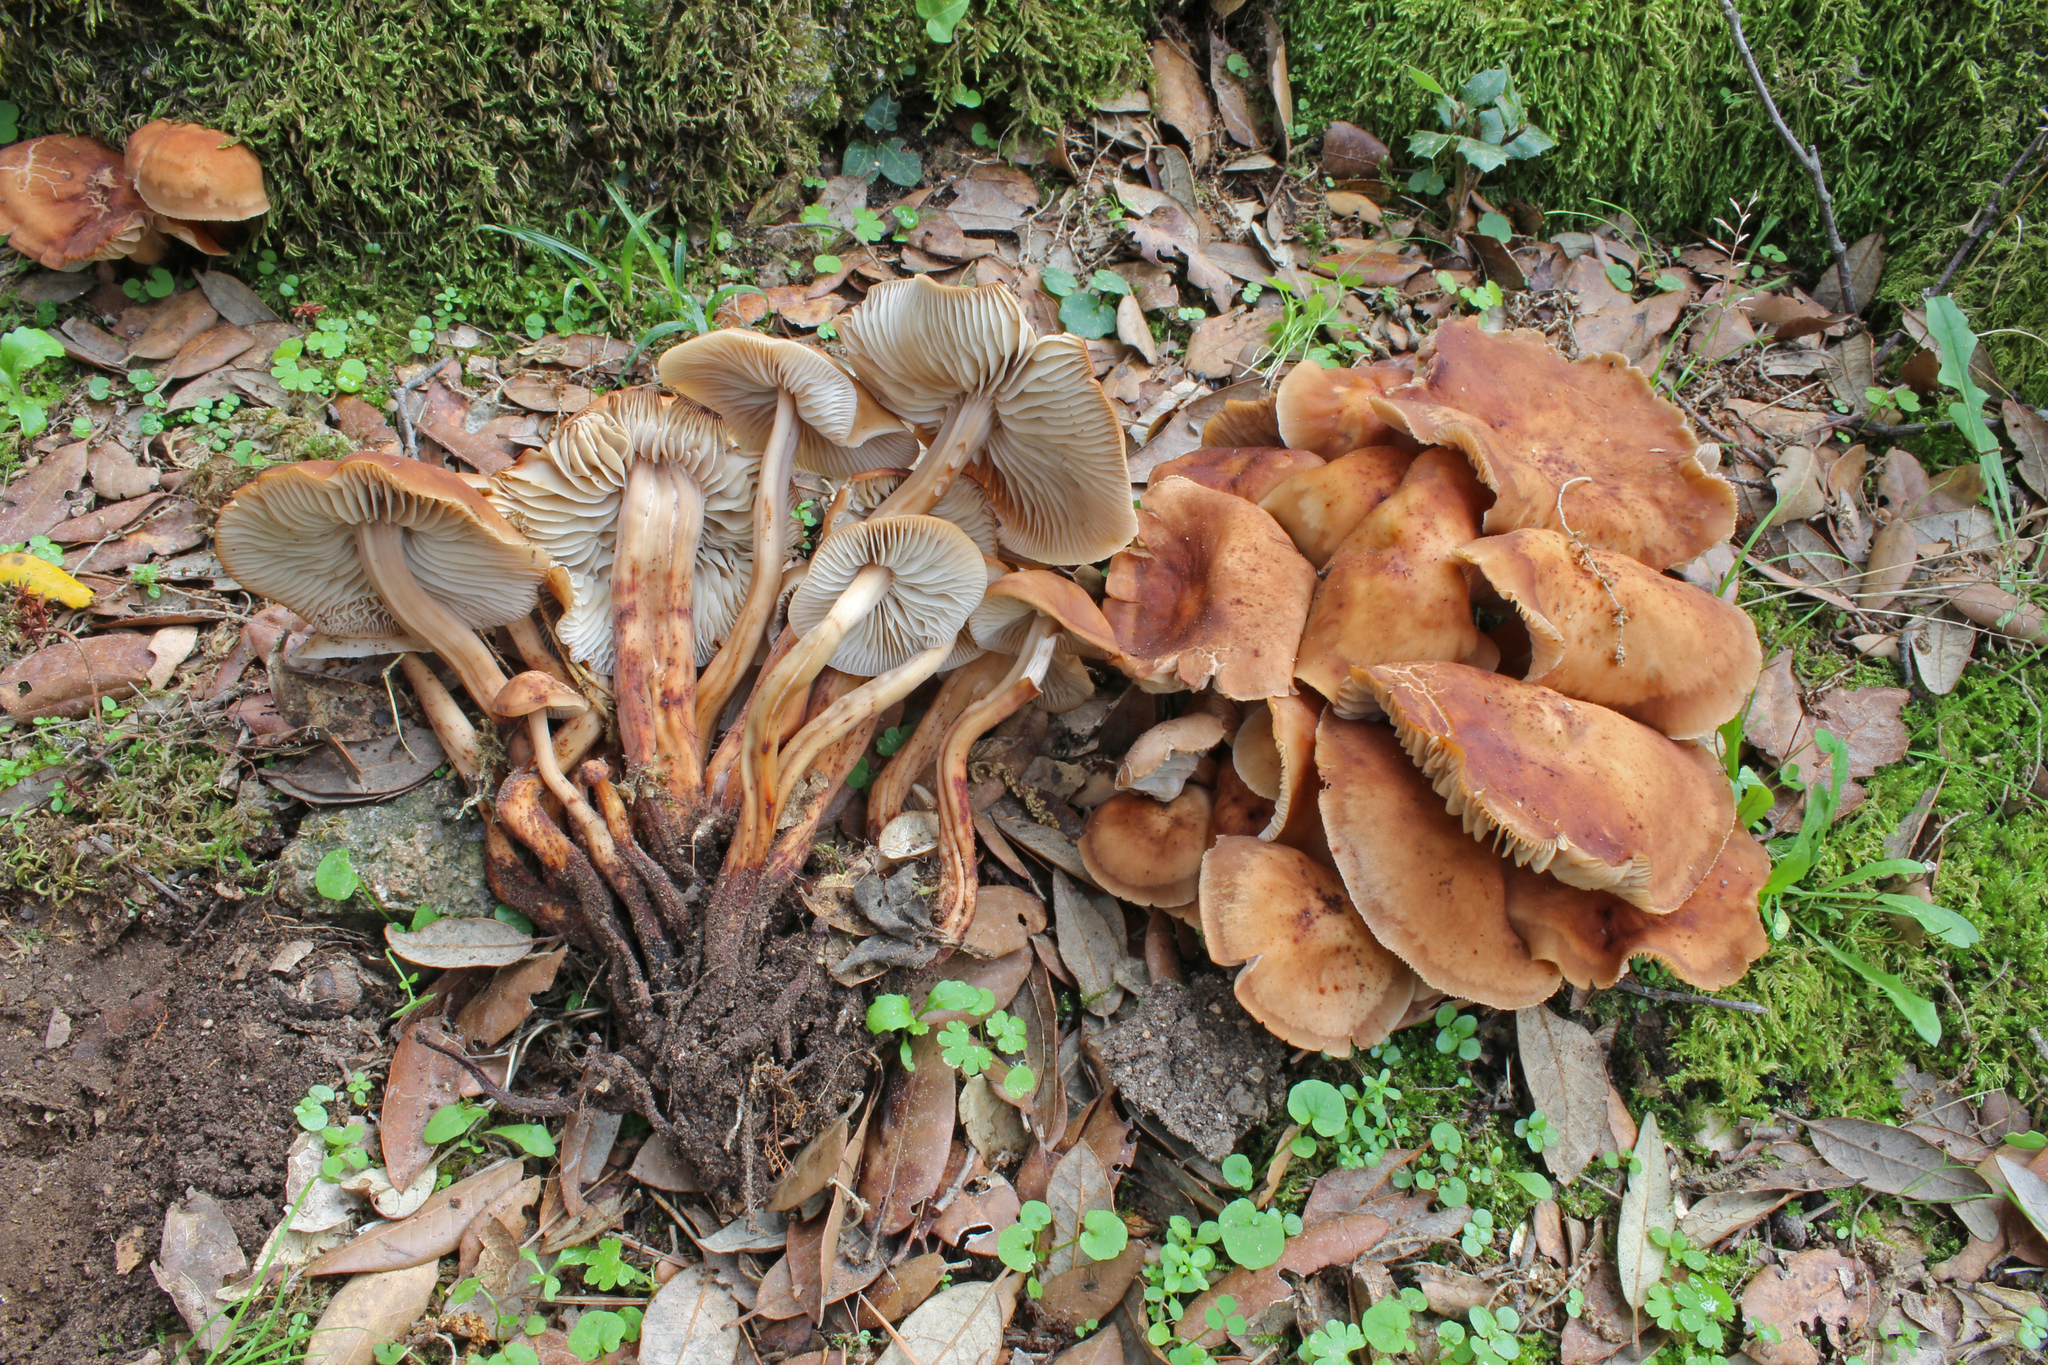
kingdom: Fungi
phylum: Basidiomycota
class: Agaricomycetes
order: Agaricales
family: Omphalotaceae
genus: Gymnopus
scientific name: Gymnopus fusipes
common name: Spindle shank
